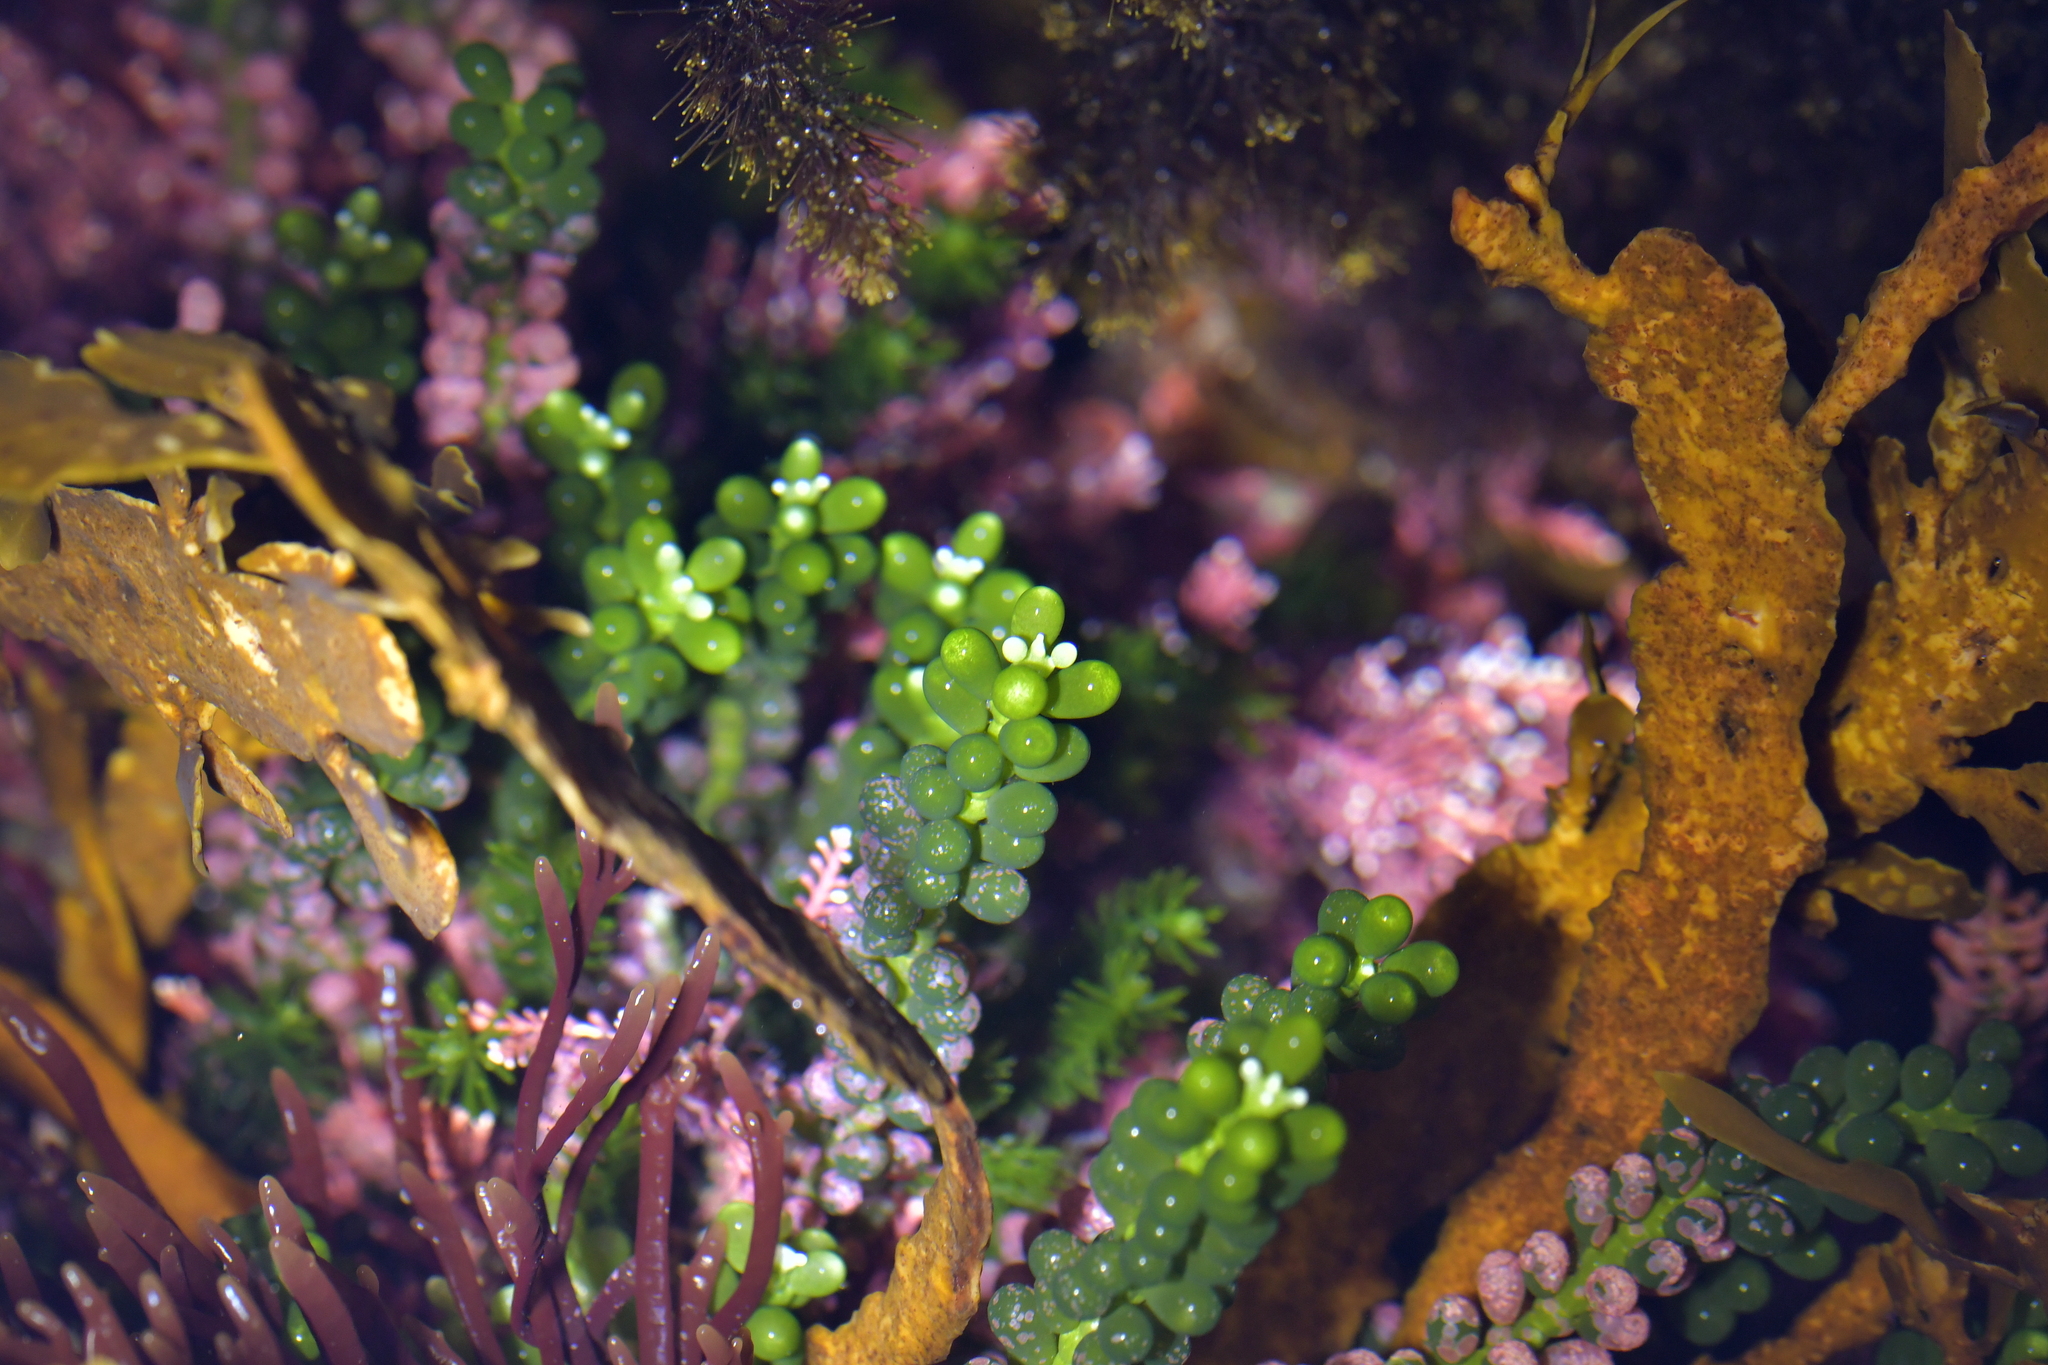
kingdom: Plantae
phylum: Chlorophyta
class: Ulvophyceae
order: Bryopsidales
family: Caulerpaceae
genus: Caulerpa
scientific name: Caulerpa geminata
